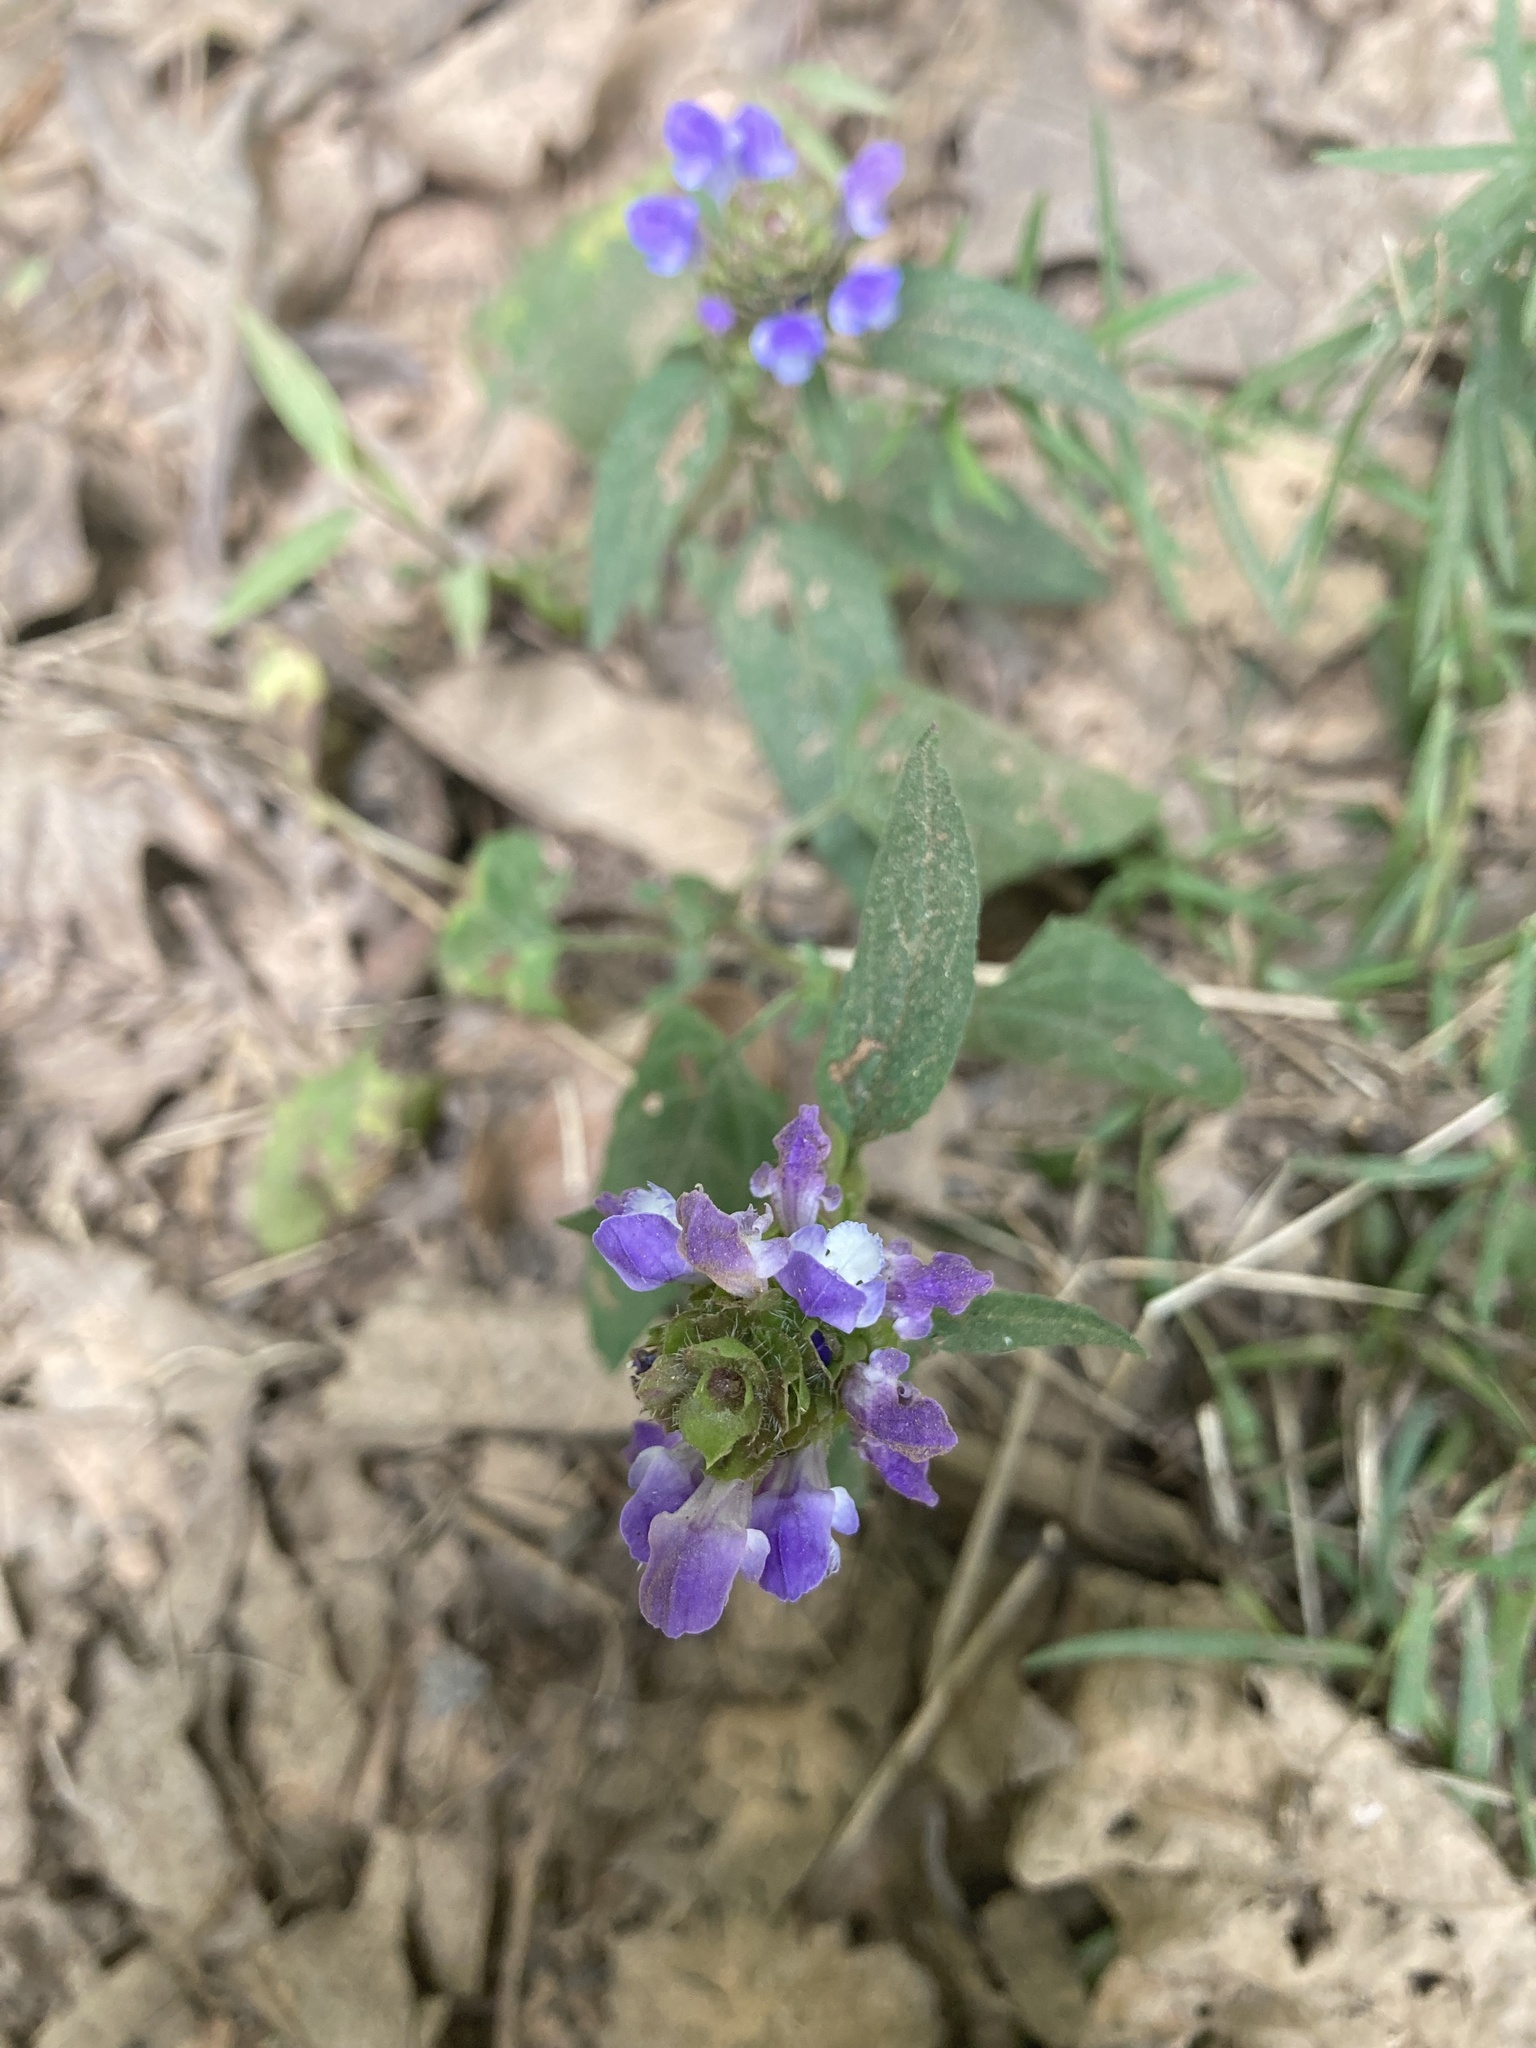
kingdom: Plantae
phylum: Tracheophyta
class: Magnoliopsida
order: Lamiales
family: Lamiaceae
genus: Prunella
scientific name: Prunella vulgaris
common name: Heal-all
